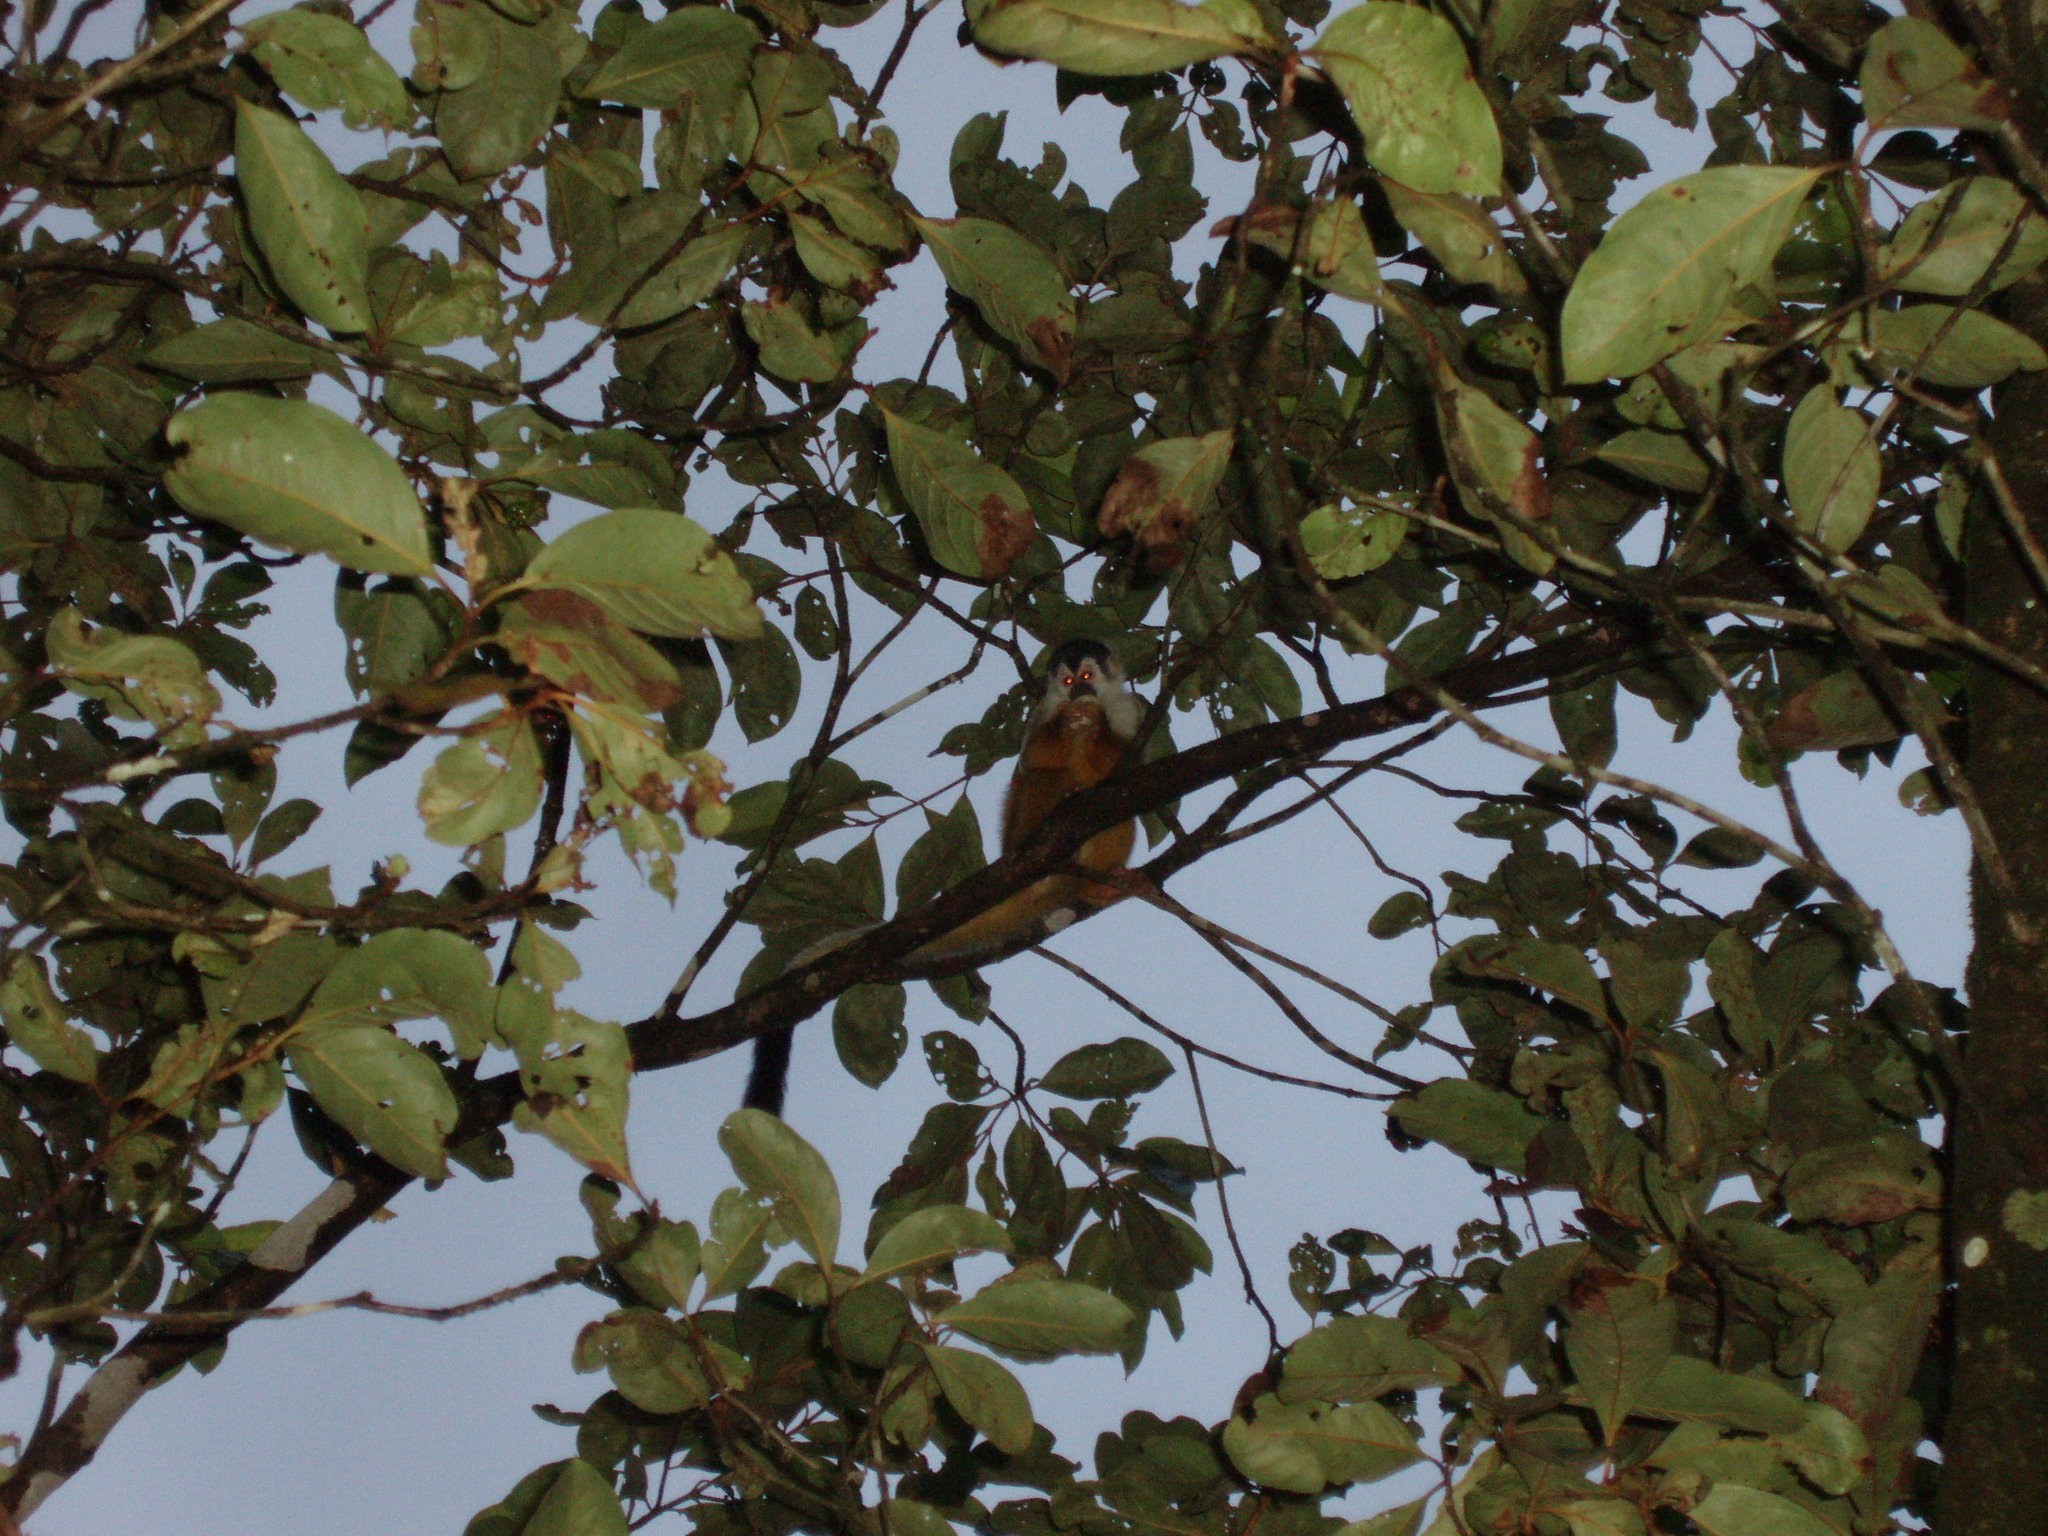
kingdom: Animalia
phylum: Chordata
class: Mammalia
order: Primates
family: Cebidae
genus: Saimiri
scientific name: Saimiri oerstedii
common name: Central american squirrel monkey
